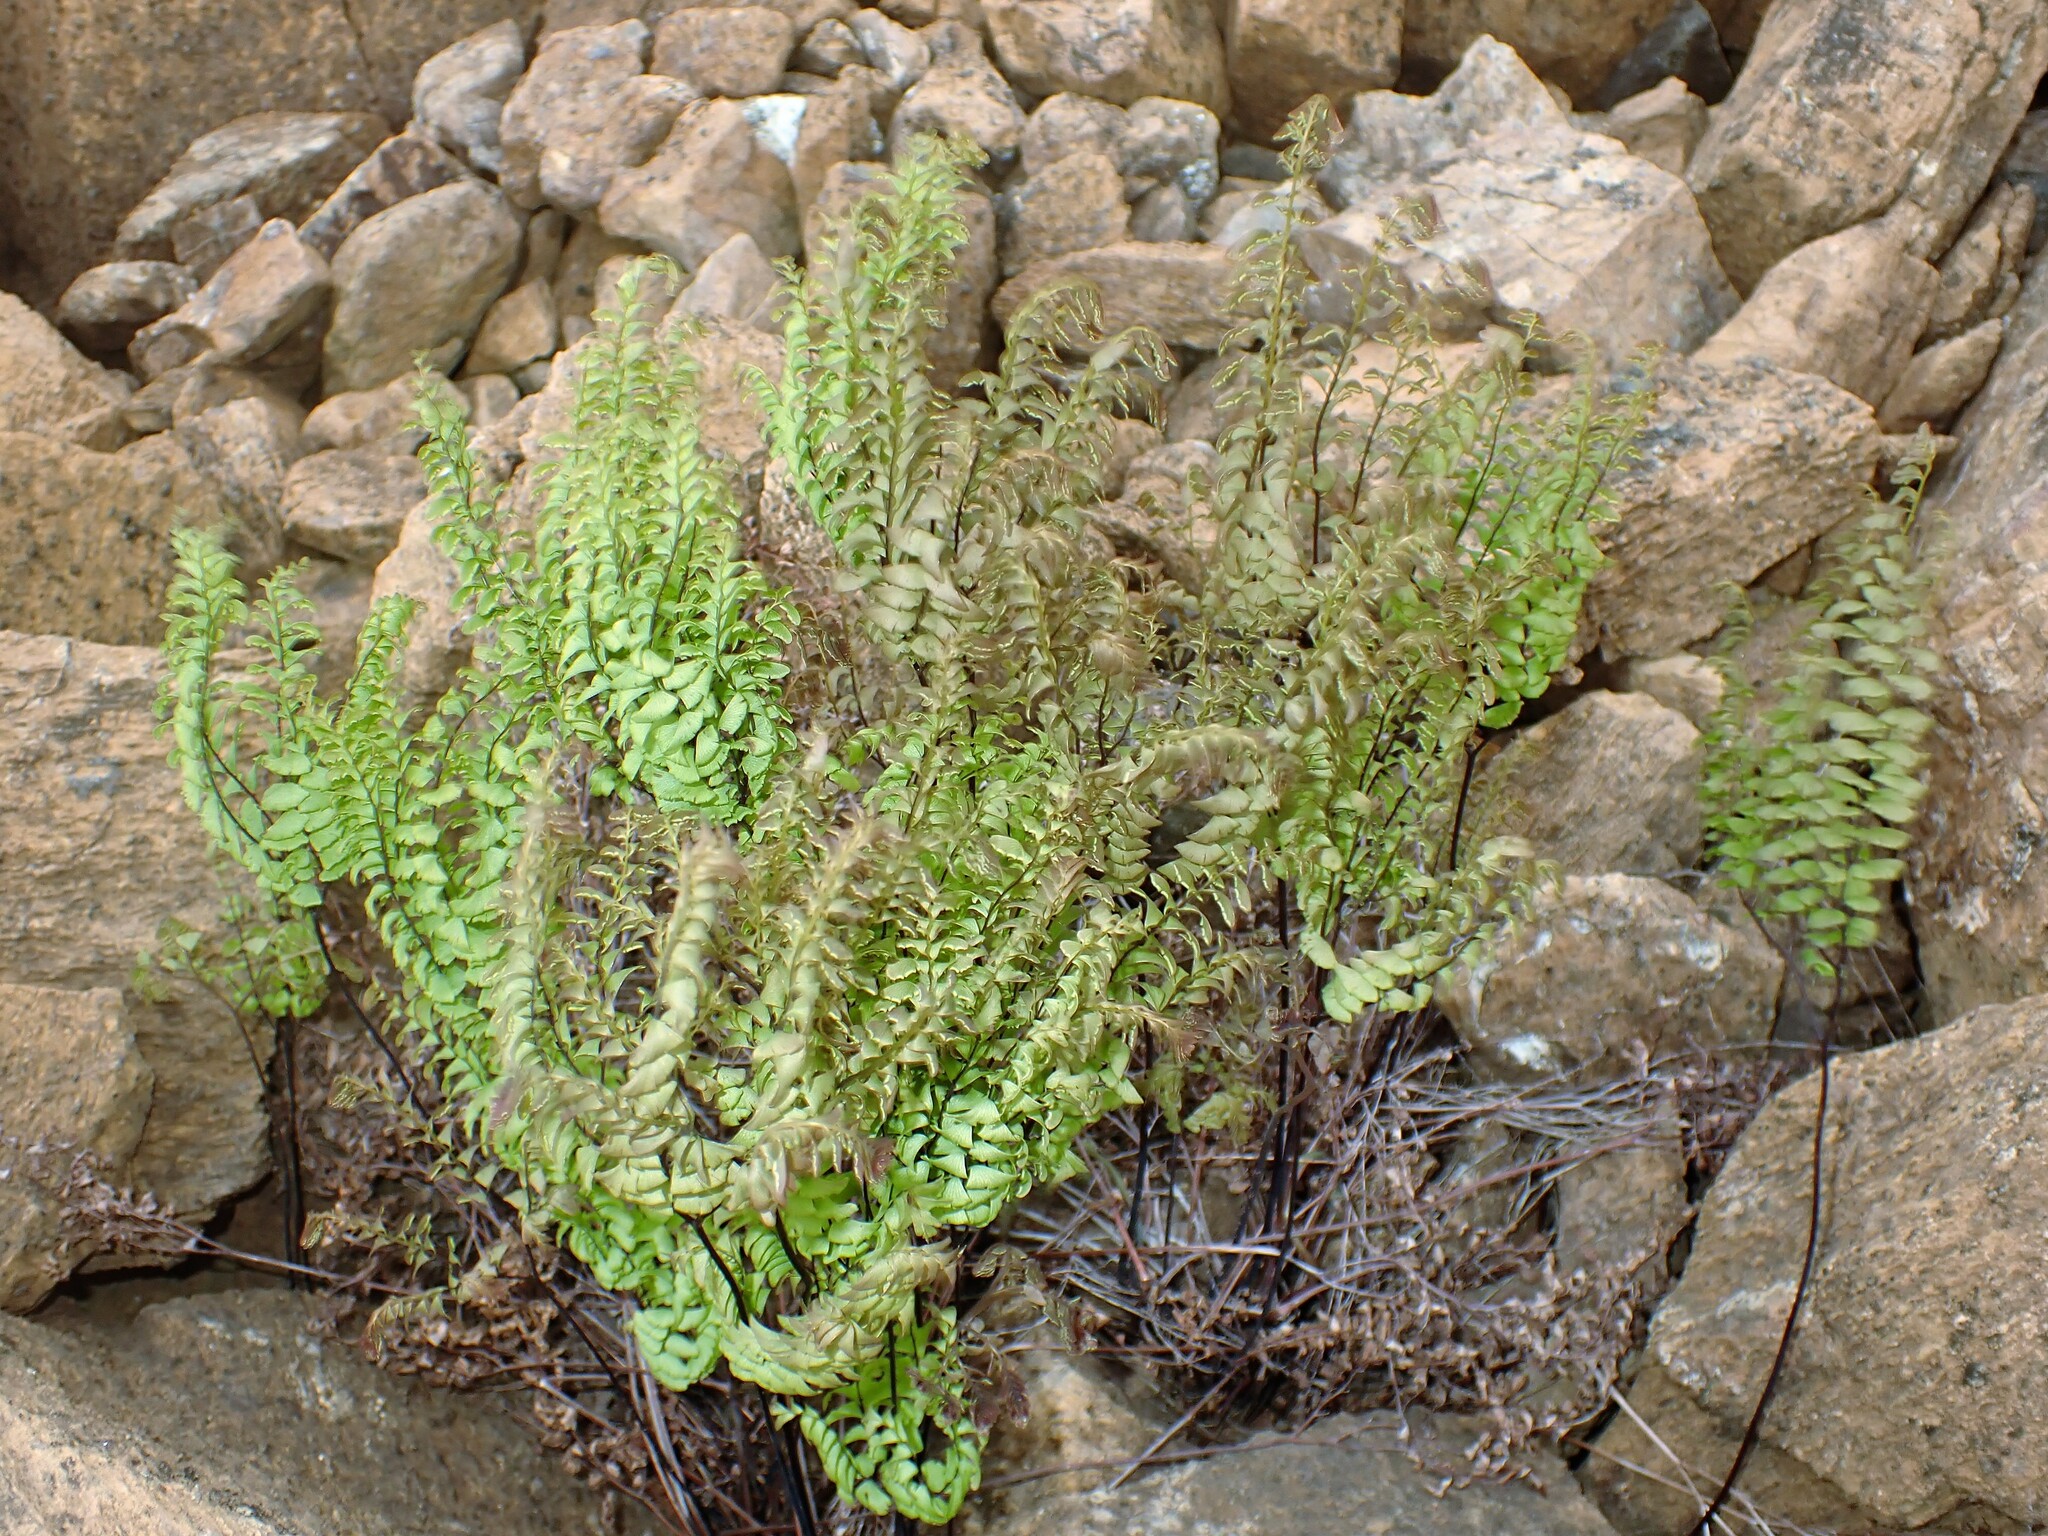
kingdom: Plantae
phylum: Tracheophyta
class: Polypodiopsida
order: Polypodiales
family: Pteridaceae
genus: Adiantum
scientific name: Adiantum aleuticum
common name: Aleutian maidenhair fern
